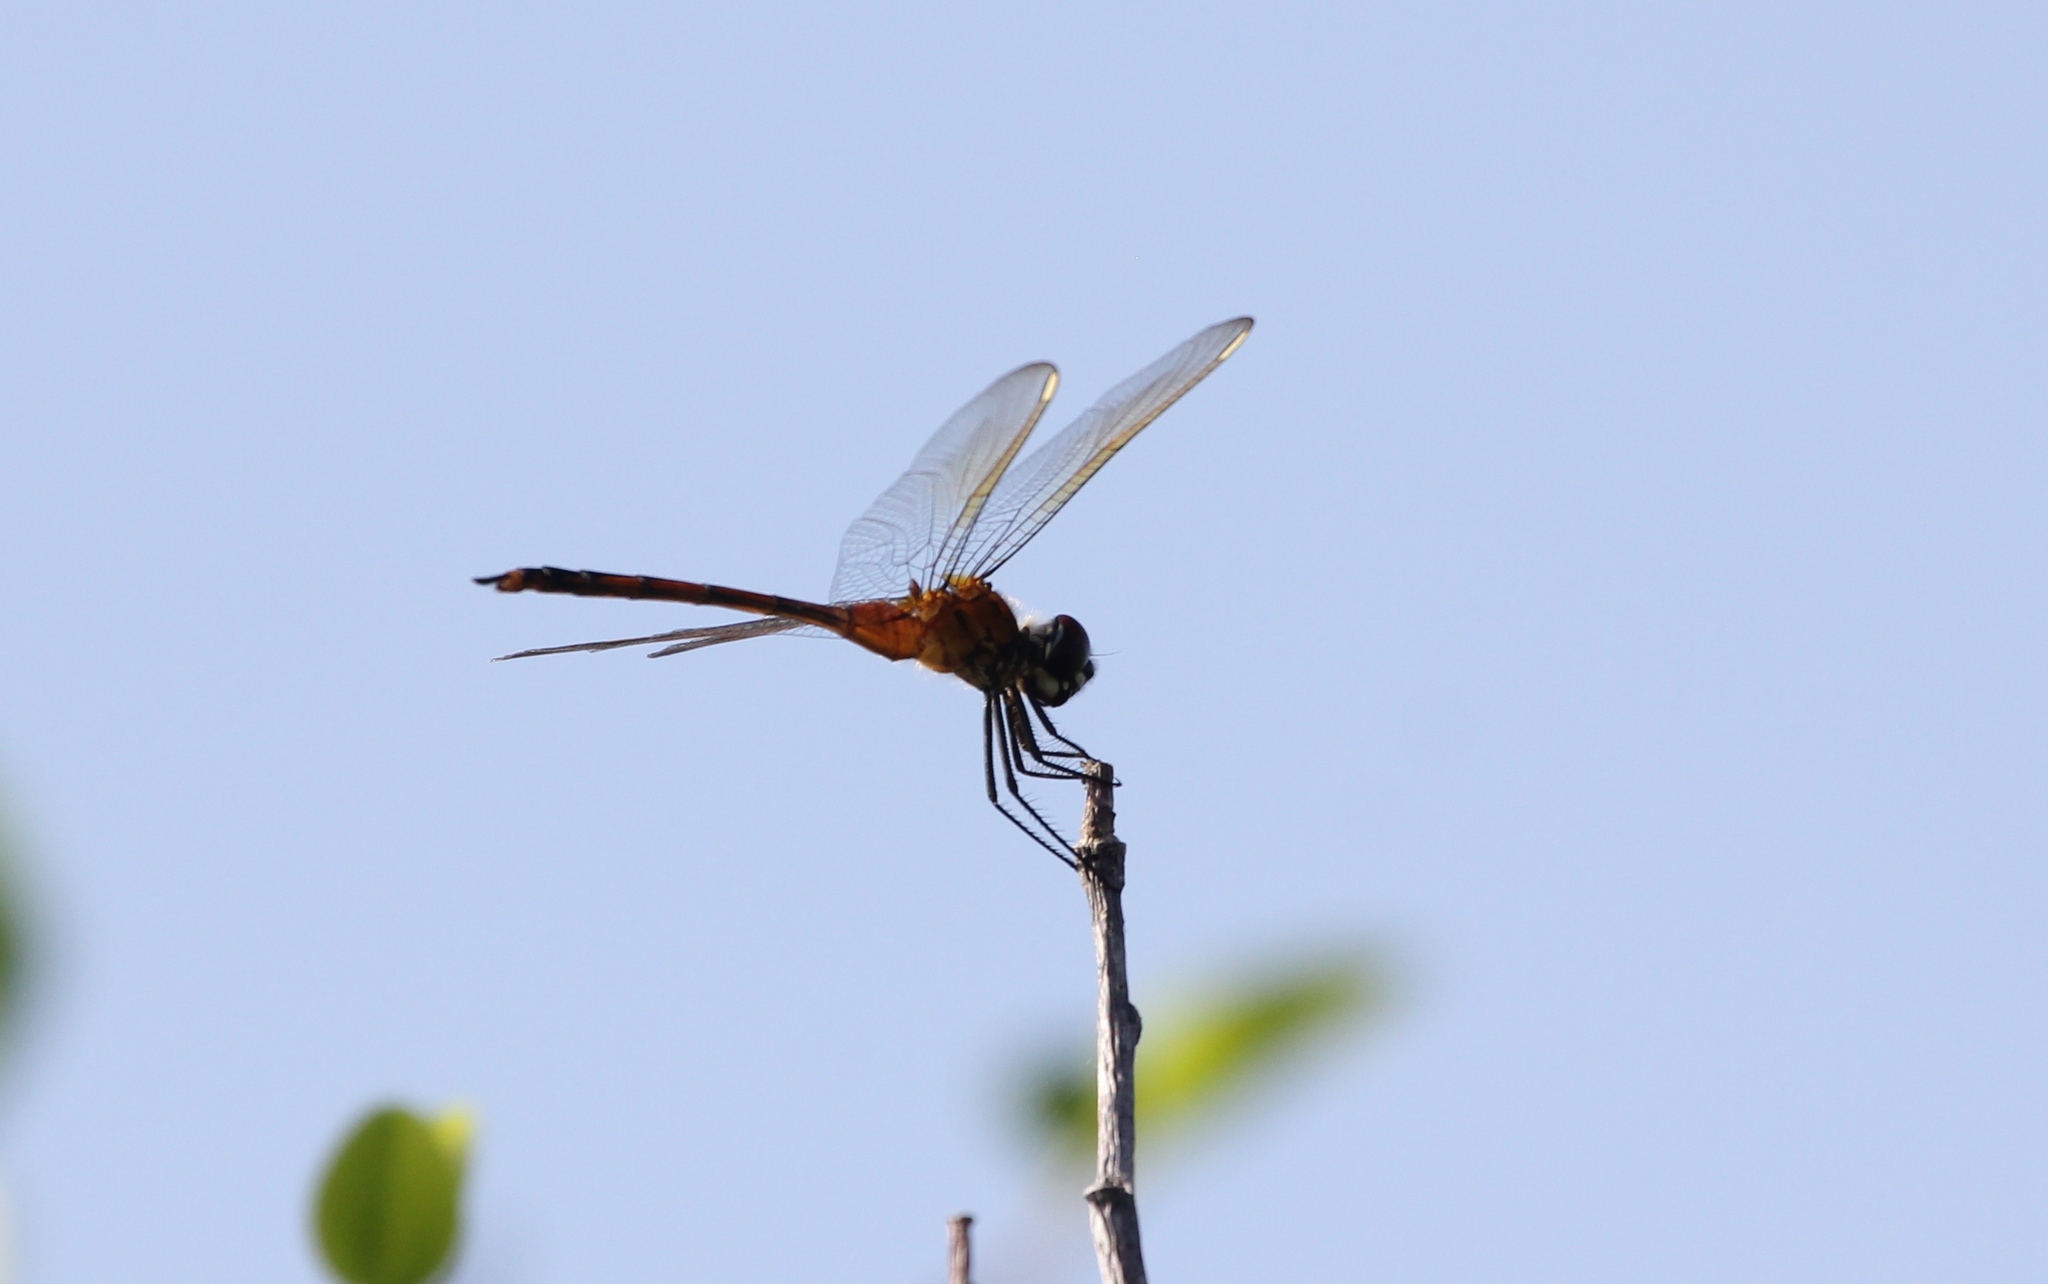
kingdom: Animalia
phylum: Arthropoda
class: Insecta
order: Odonata
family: Libellulidae
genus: Brachymesia
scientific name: Brachymesia gravida
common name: Four-spotted pennant
